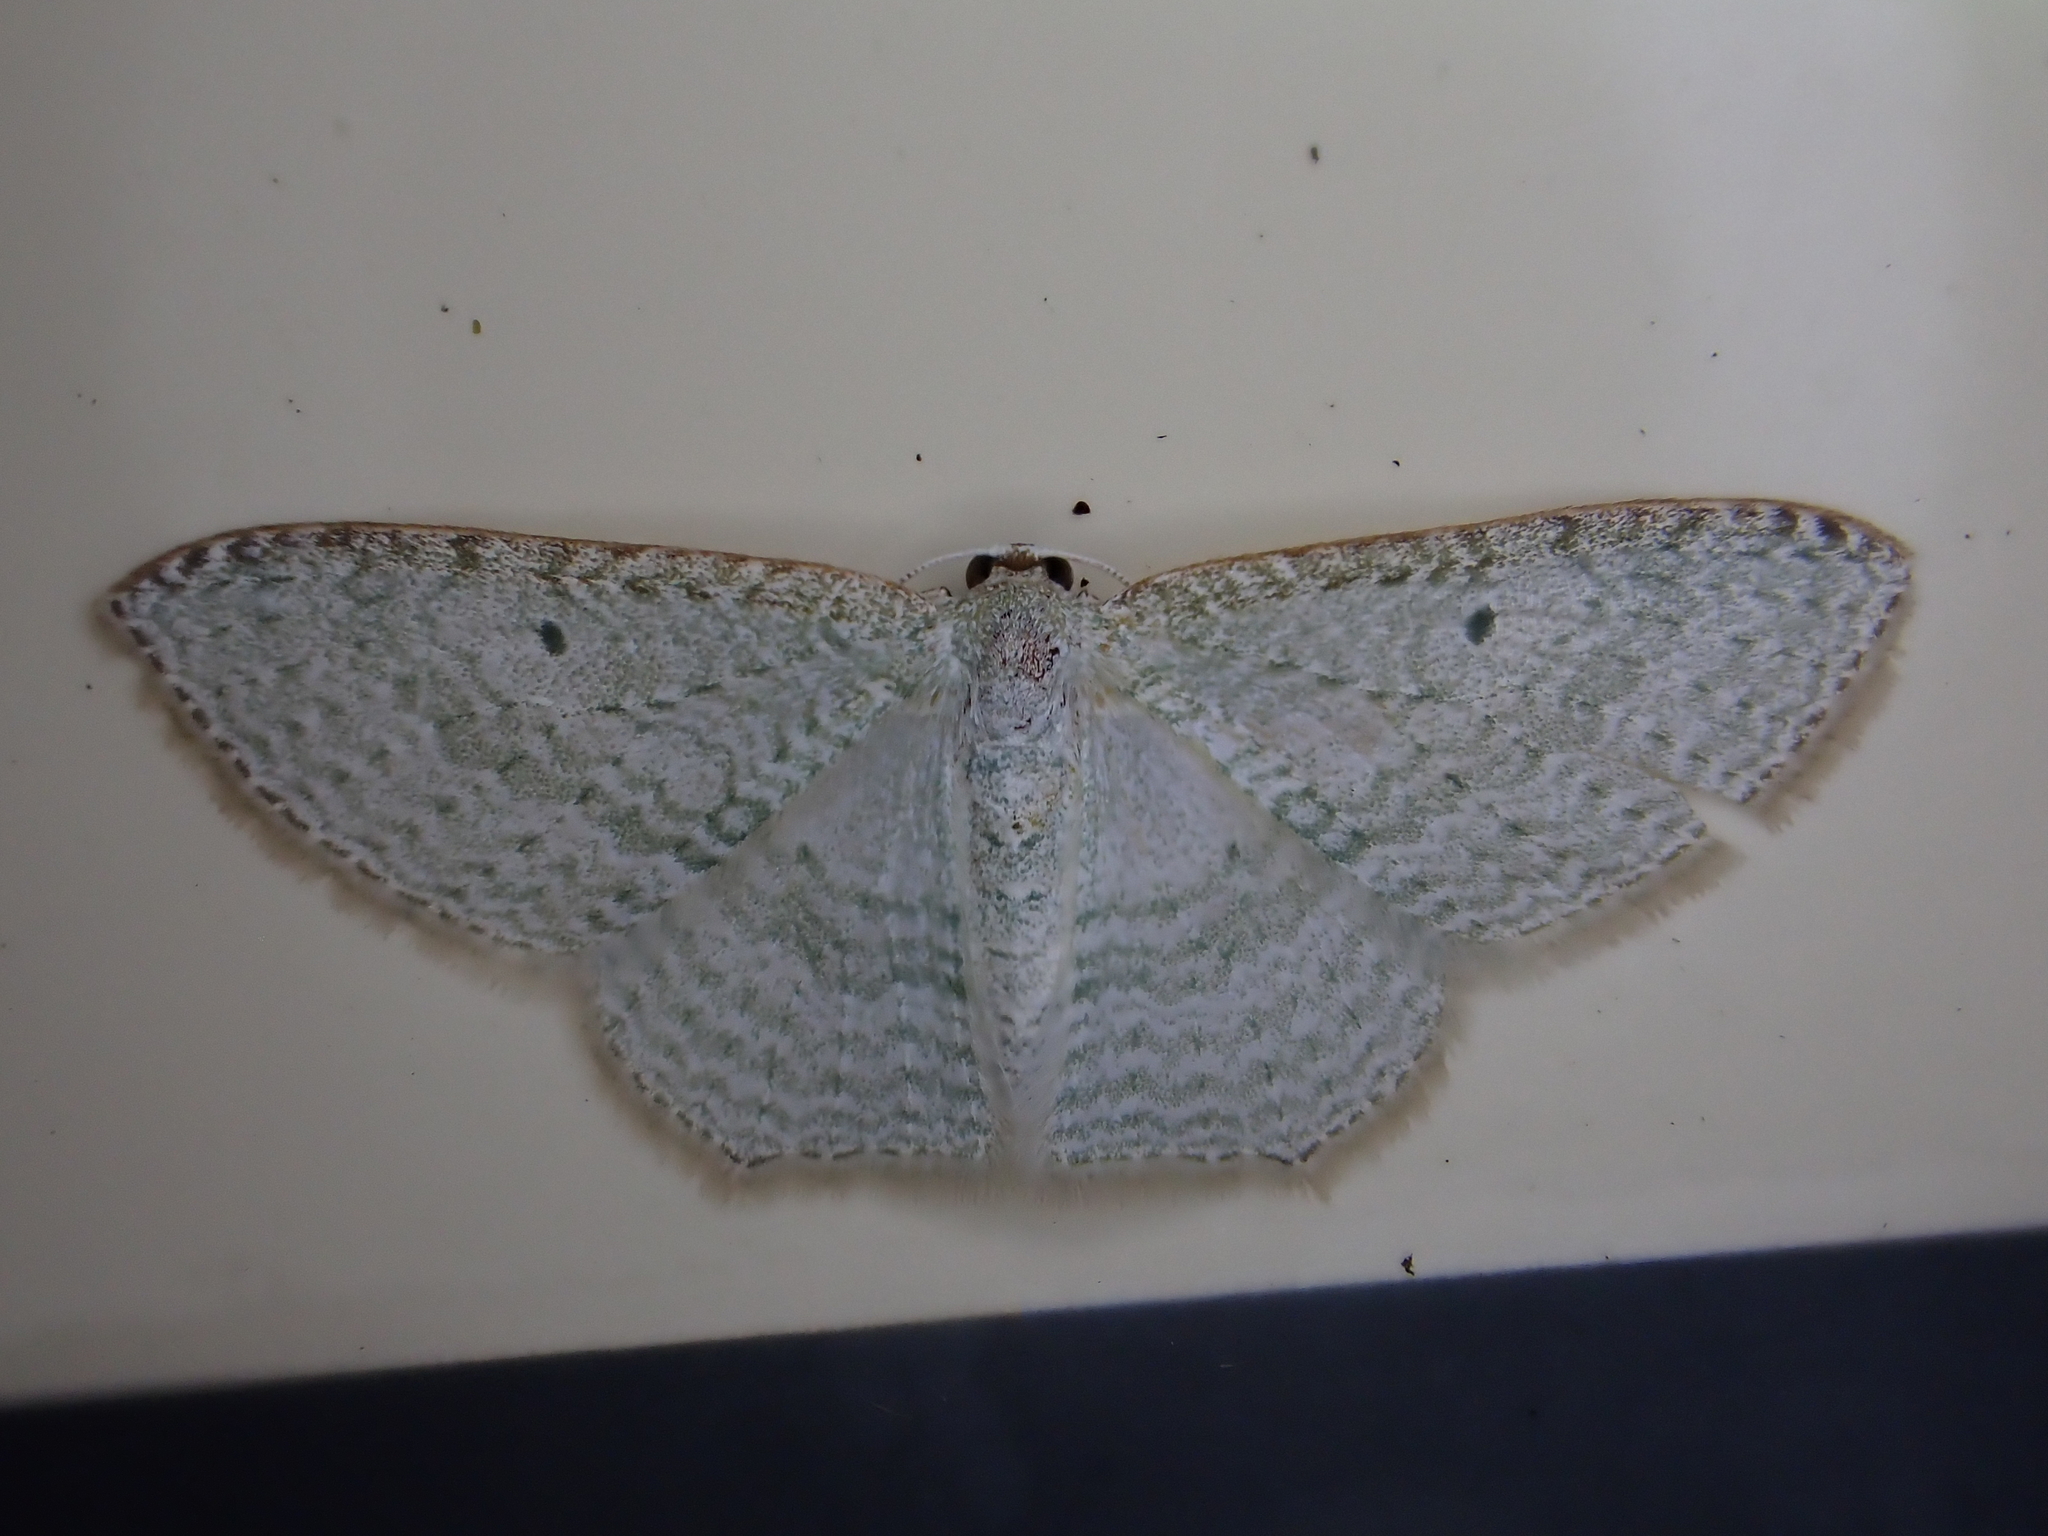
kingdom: Animalia
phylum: Arthropoda
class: Insecta
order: Lepidoptera
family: Geometridae
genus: Poecilasthena
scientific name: Poecilasthena pulchraria
